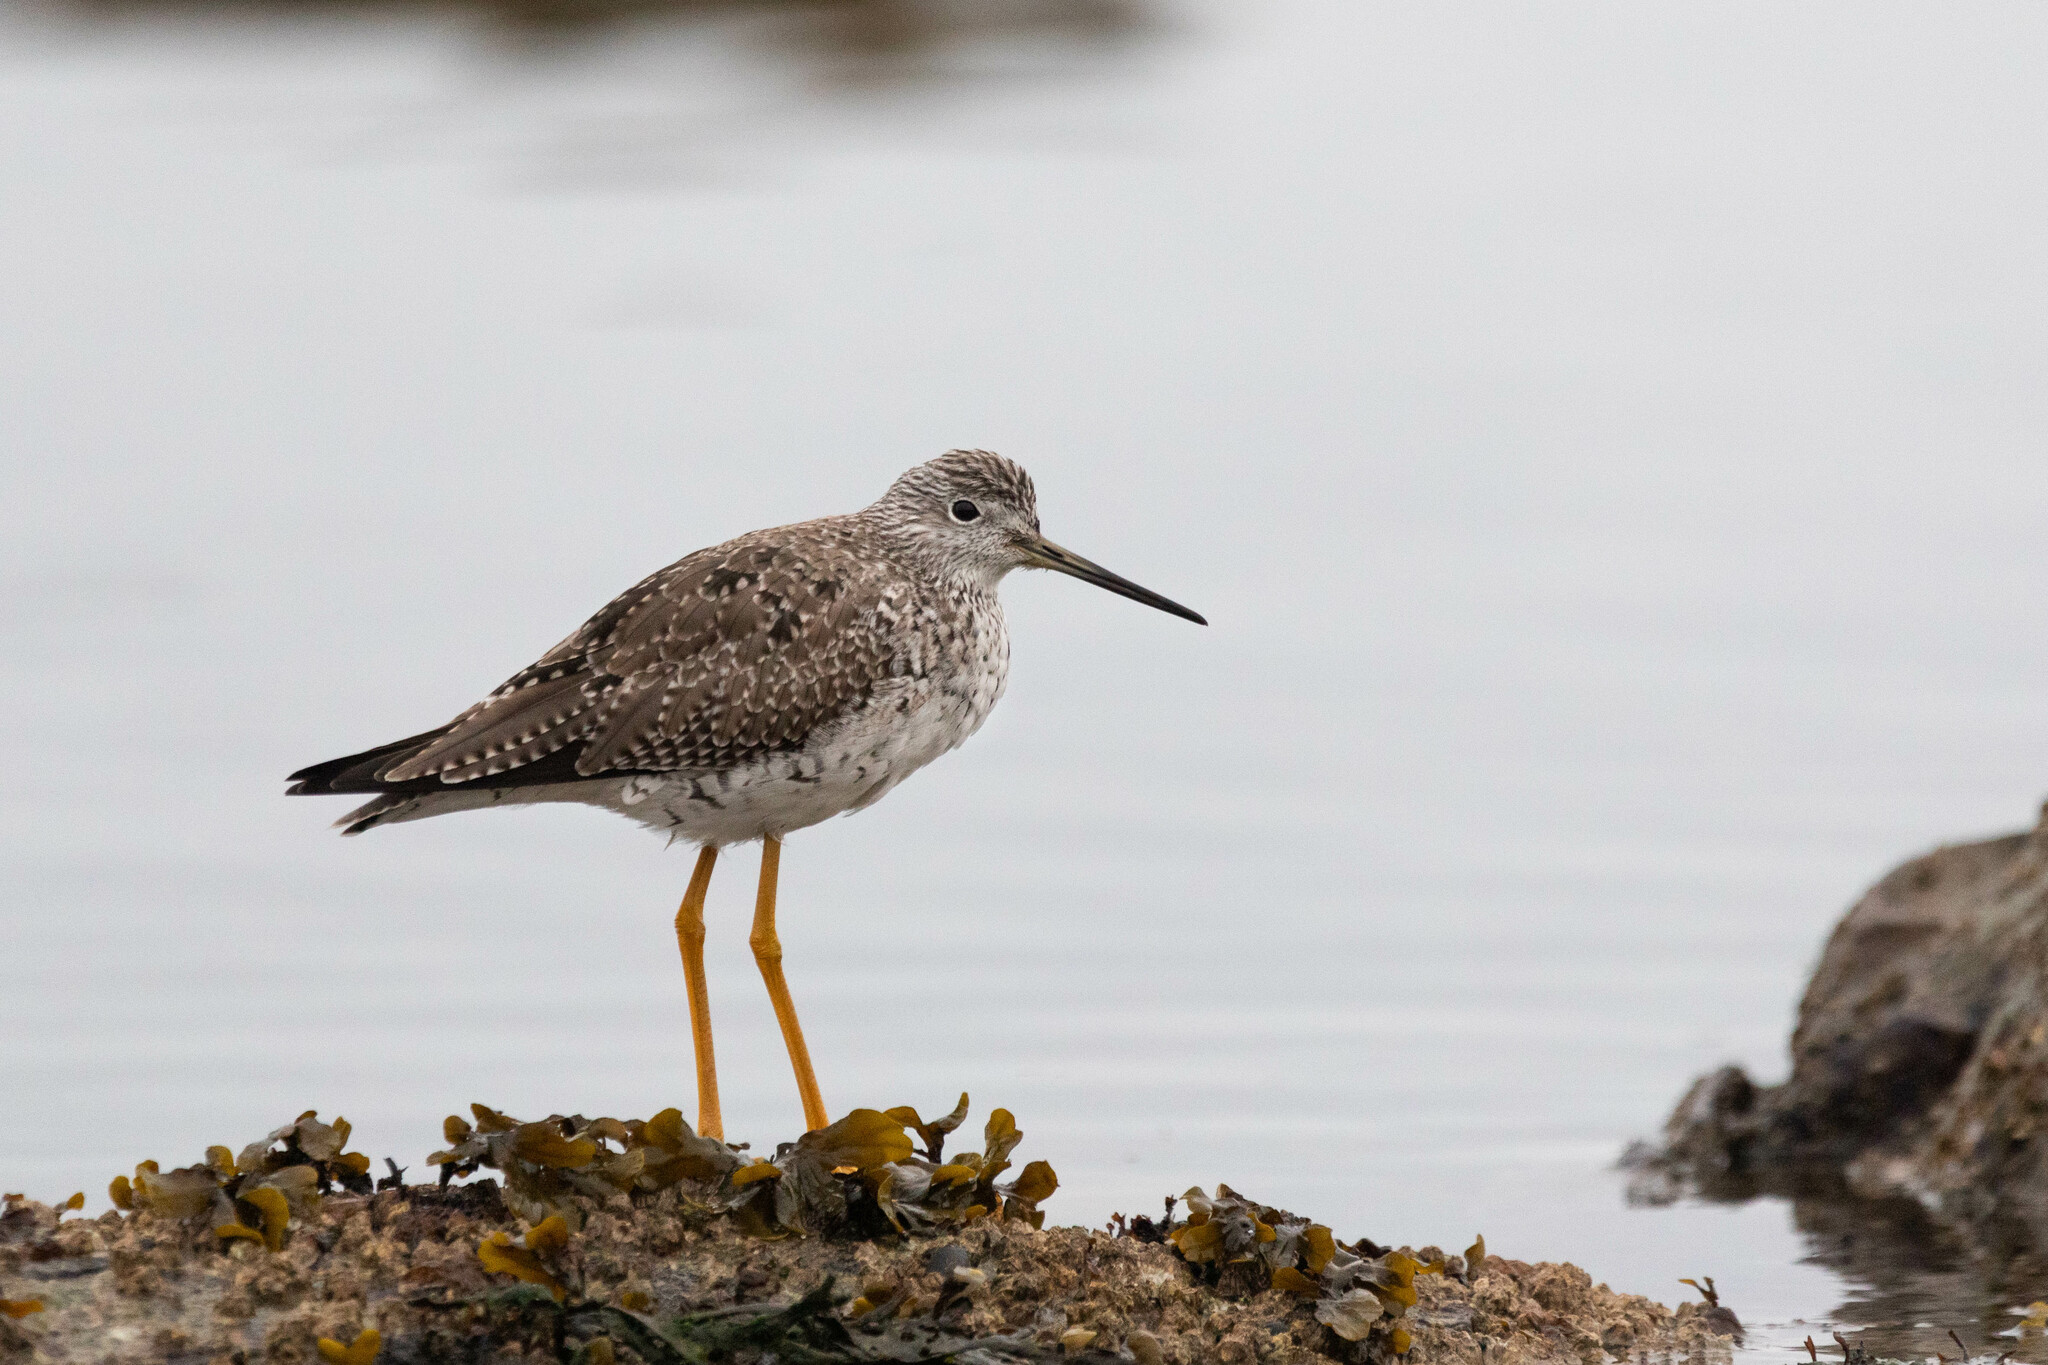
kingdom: Animalia
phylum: Chordata
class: Aves
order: Charadriiformes
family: Scolopacidae
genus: Tringa
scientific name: Tringa melanoleuca
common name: Greater yellowlegs
